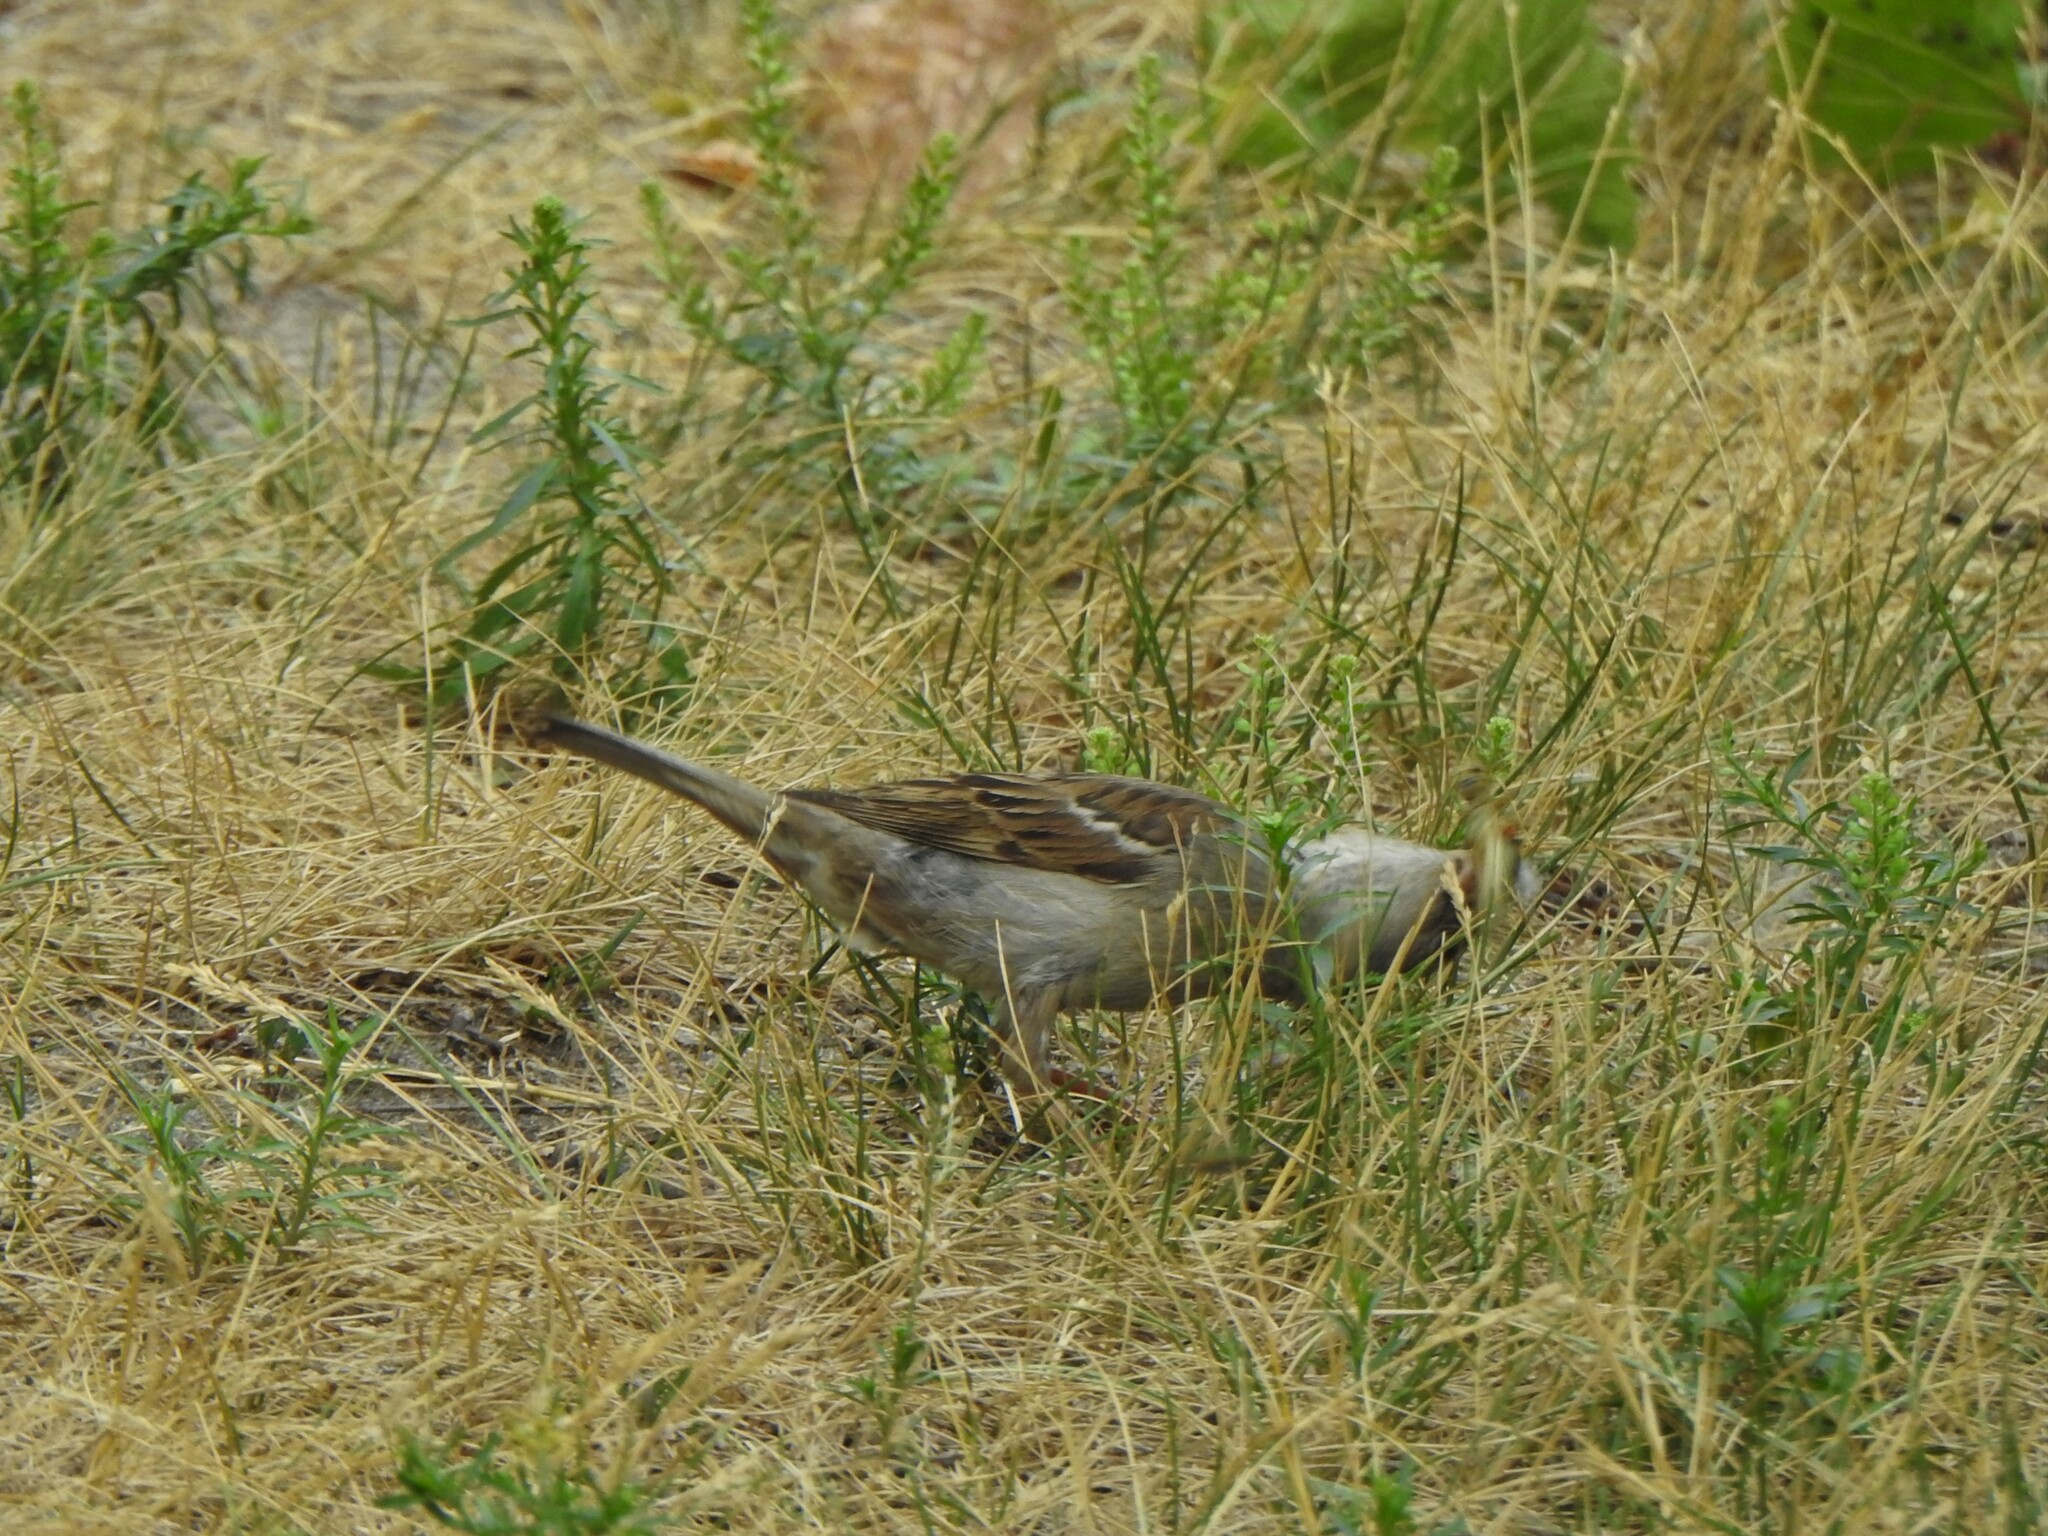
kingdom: Animalia
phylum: Chordata
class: Aves
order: Passeriformes
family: Passeridae
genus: Passer
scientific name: Passer domesticus
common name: House sparrow
